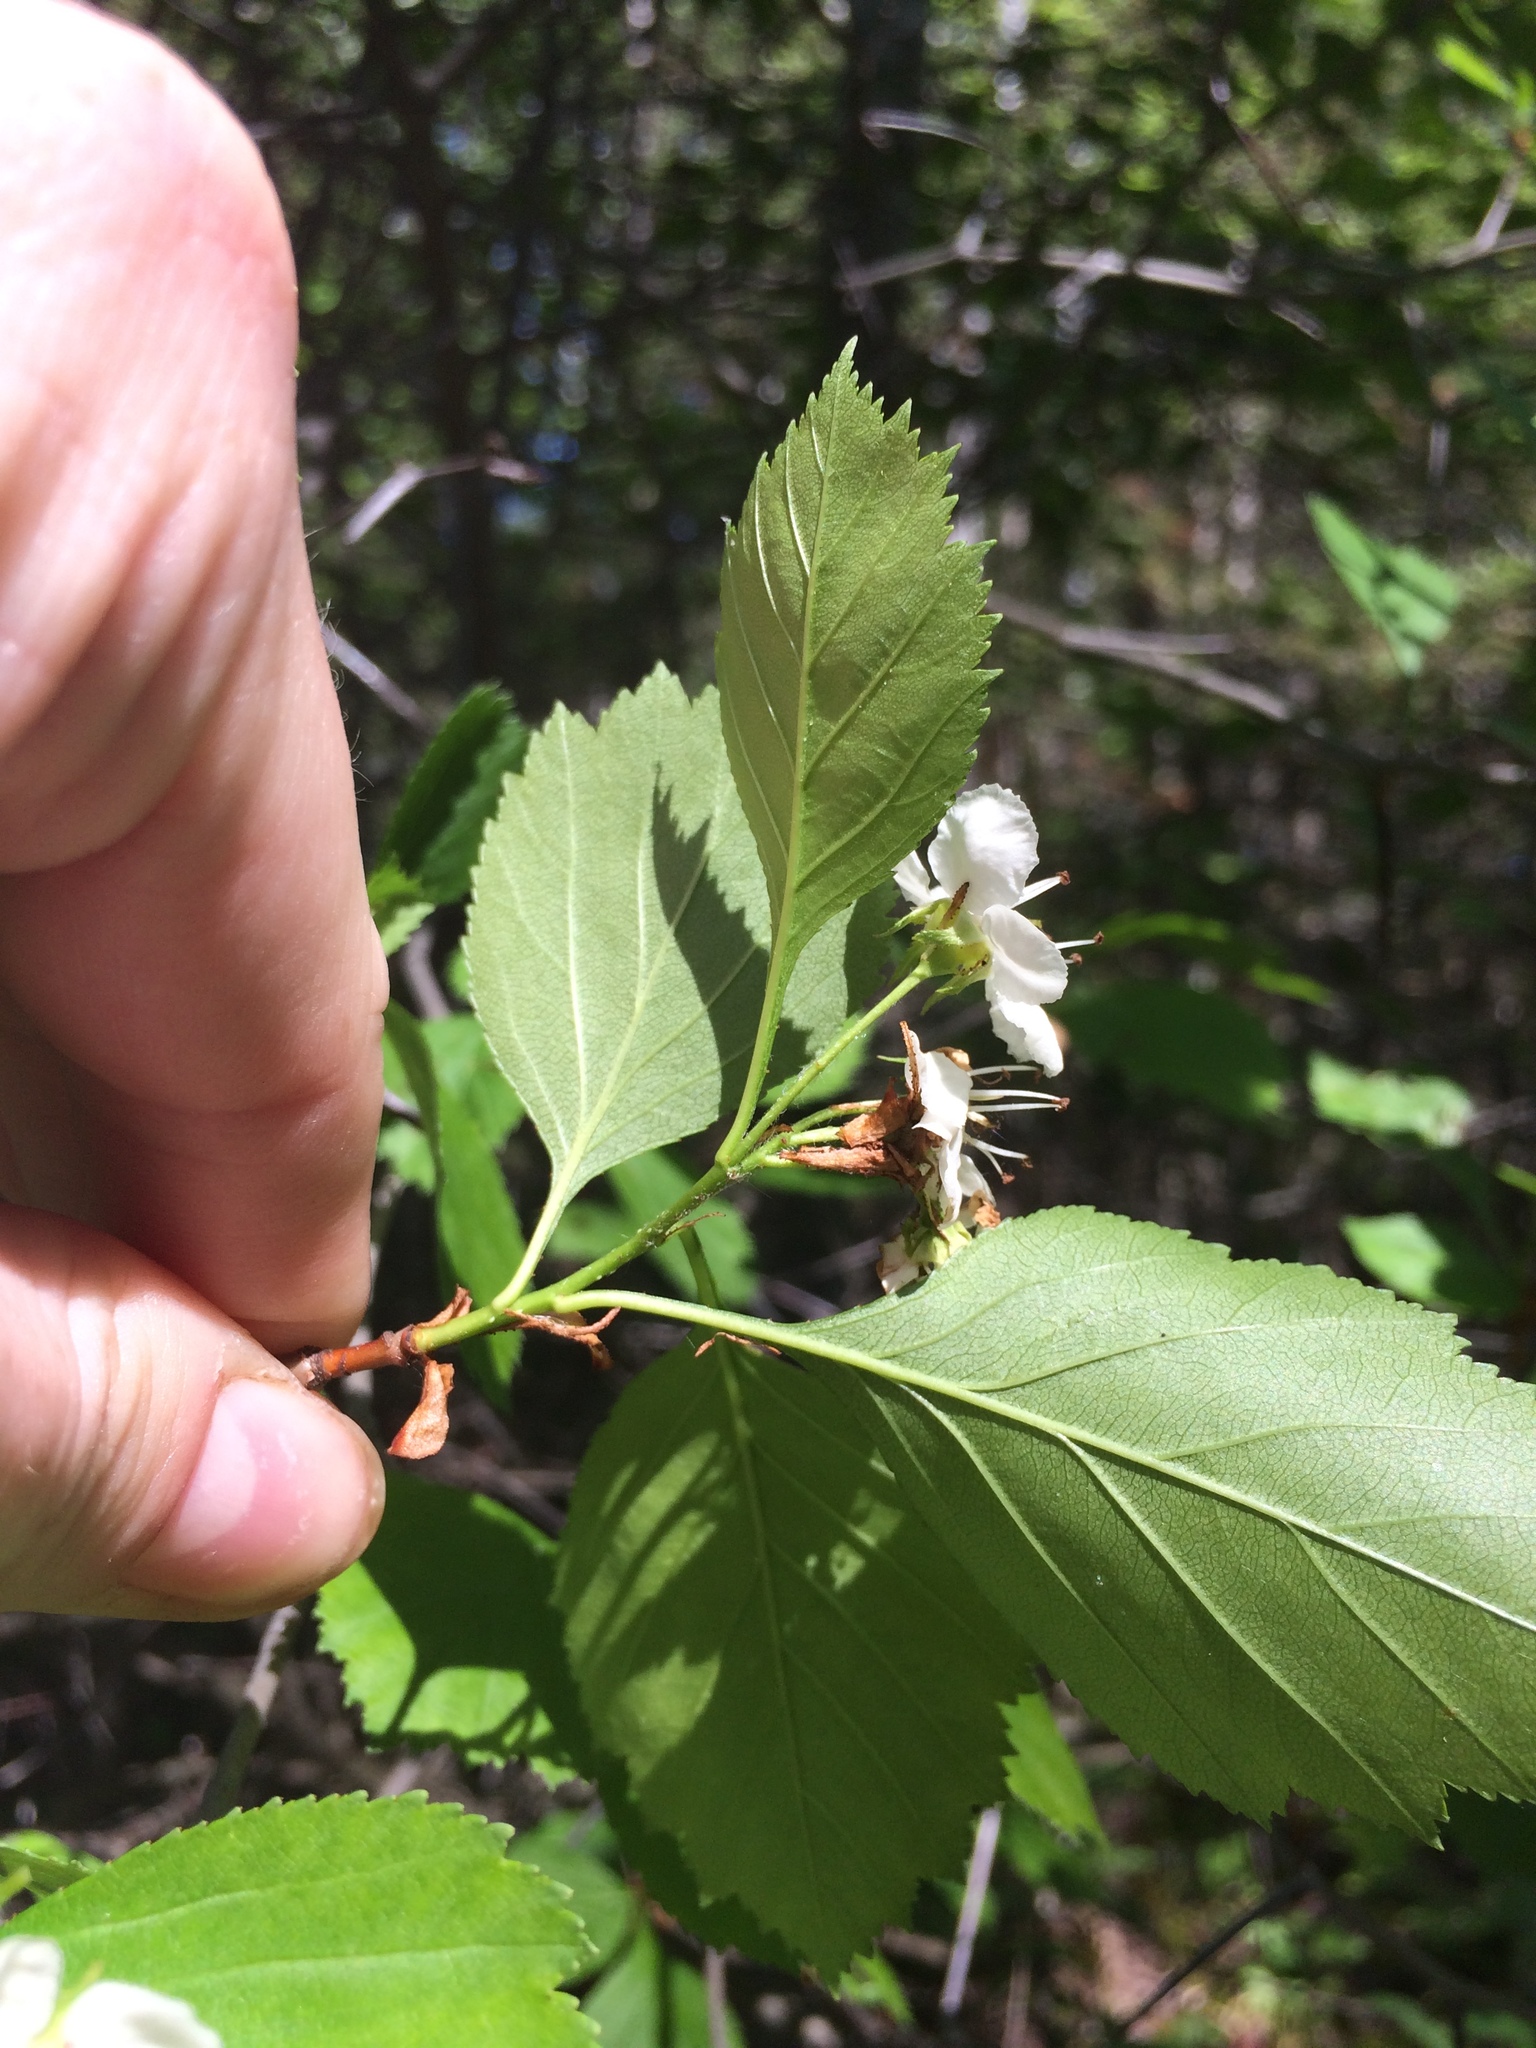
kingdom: Plantae
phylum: Tracheophyta
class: Magnoliopsida
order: Rosales
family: Rosaceae
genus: Crataegus
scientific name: Crataegus chrysocarpa
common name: Fire-berry hawthorn
